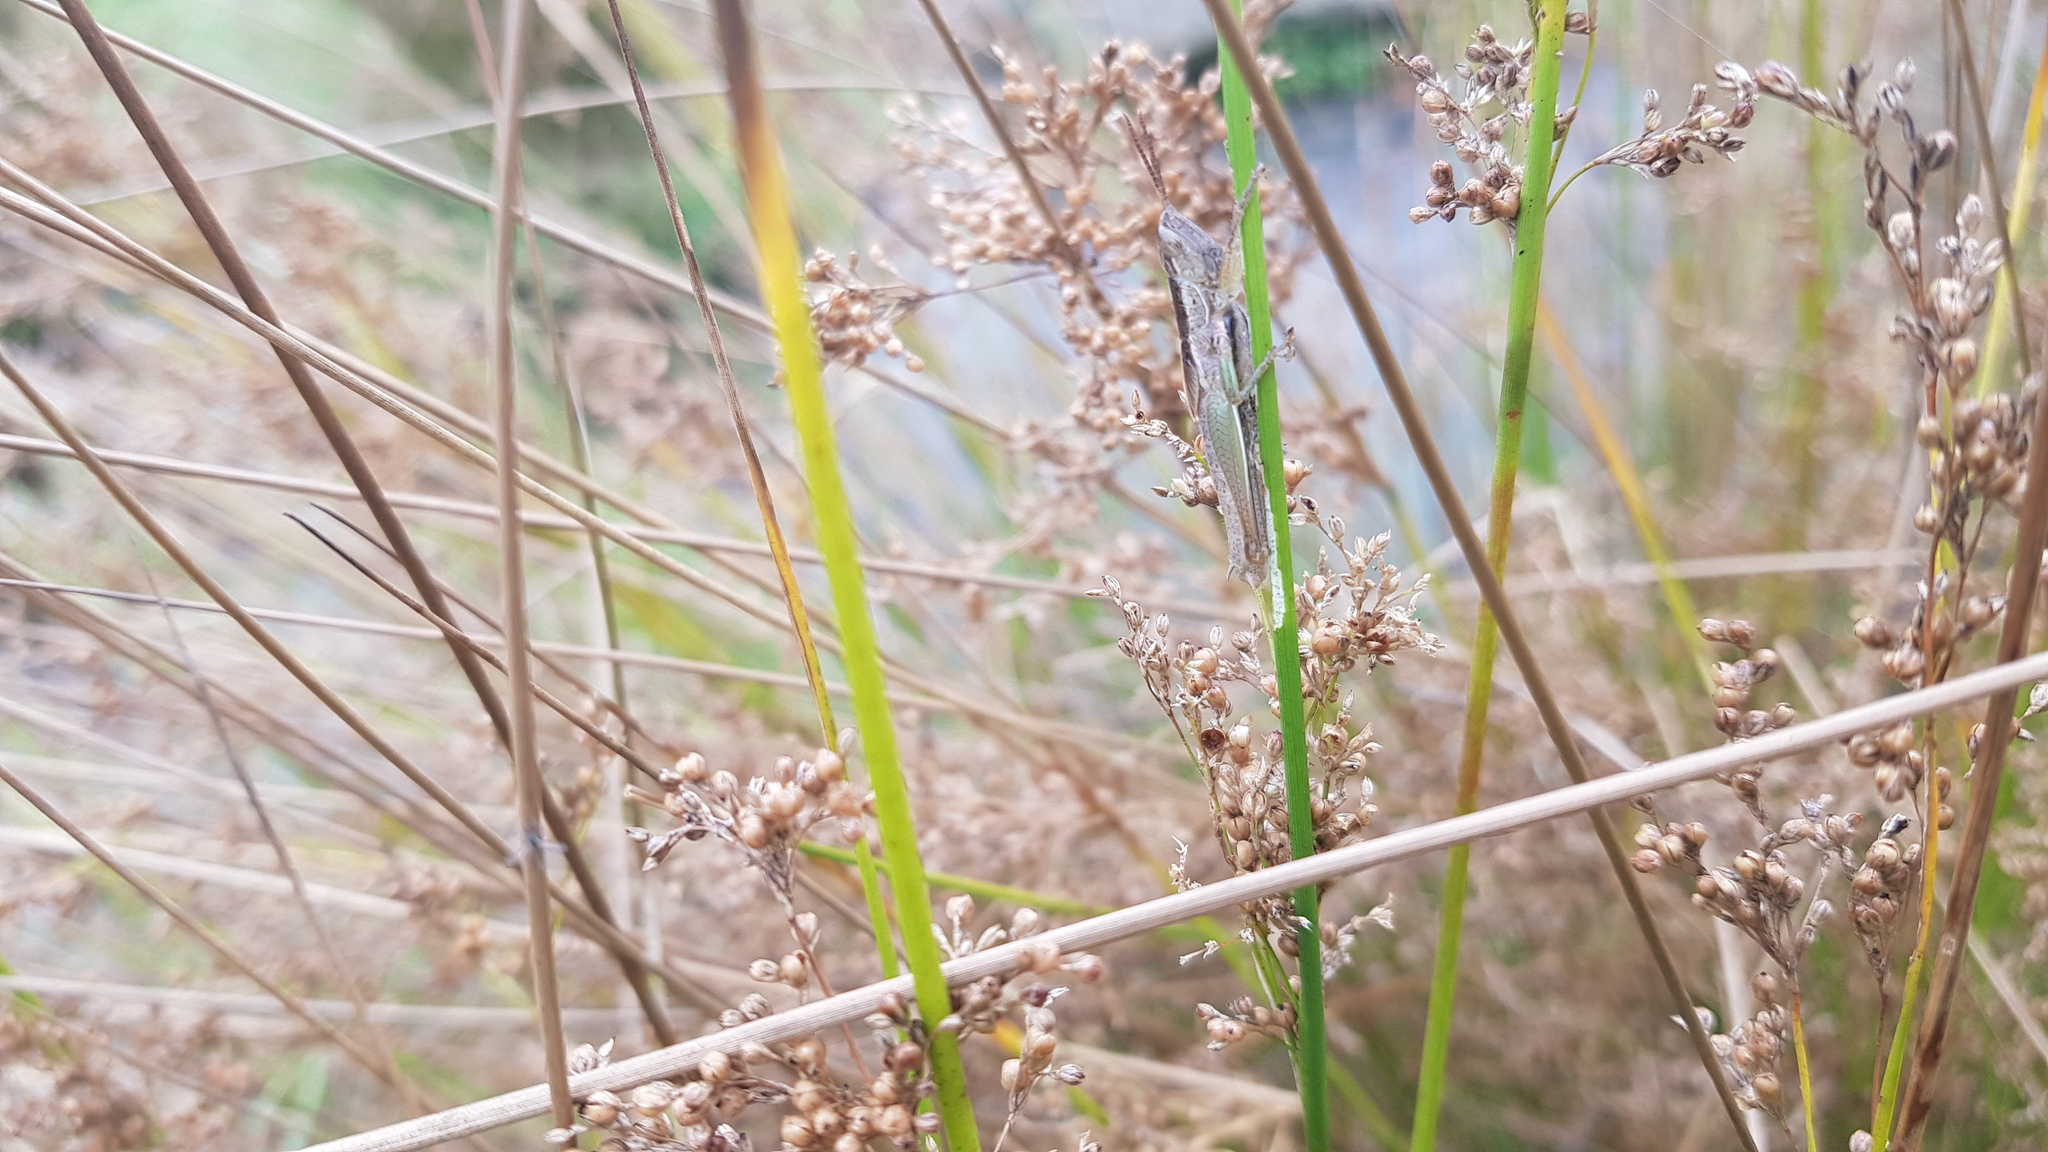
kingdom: Animalia
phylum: Arthropoda
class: Insecta
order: Orthoptera
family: Acrididae
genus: Bermius
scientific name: Bermius brachycerus
